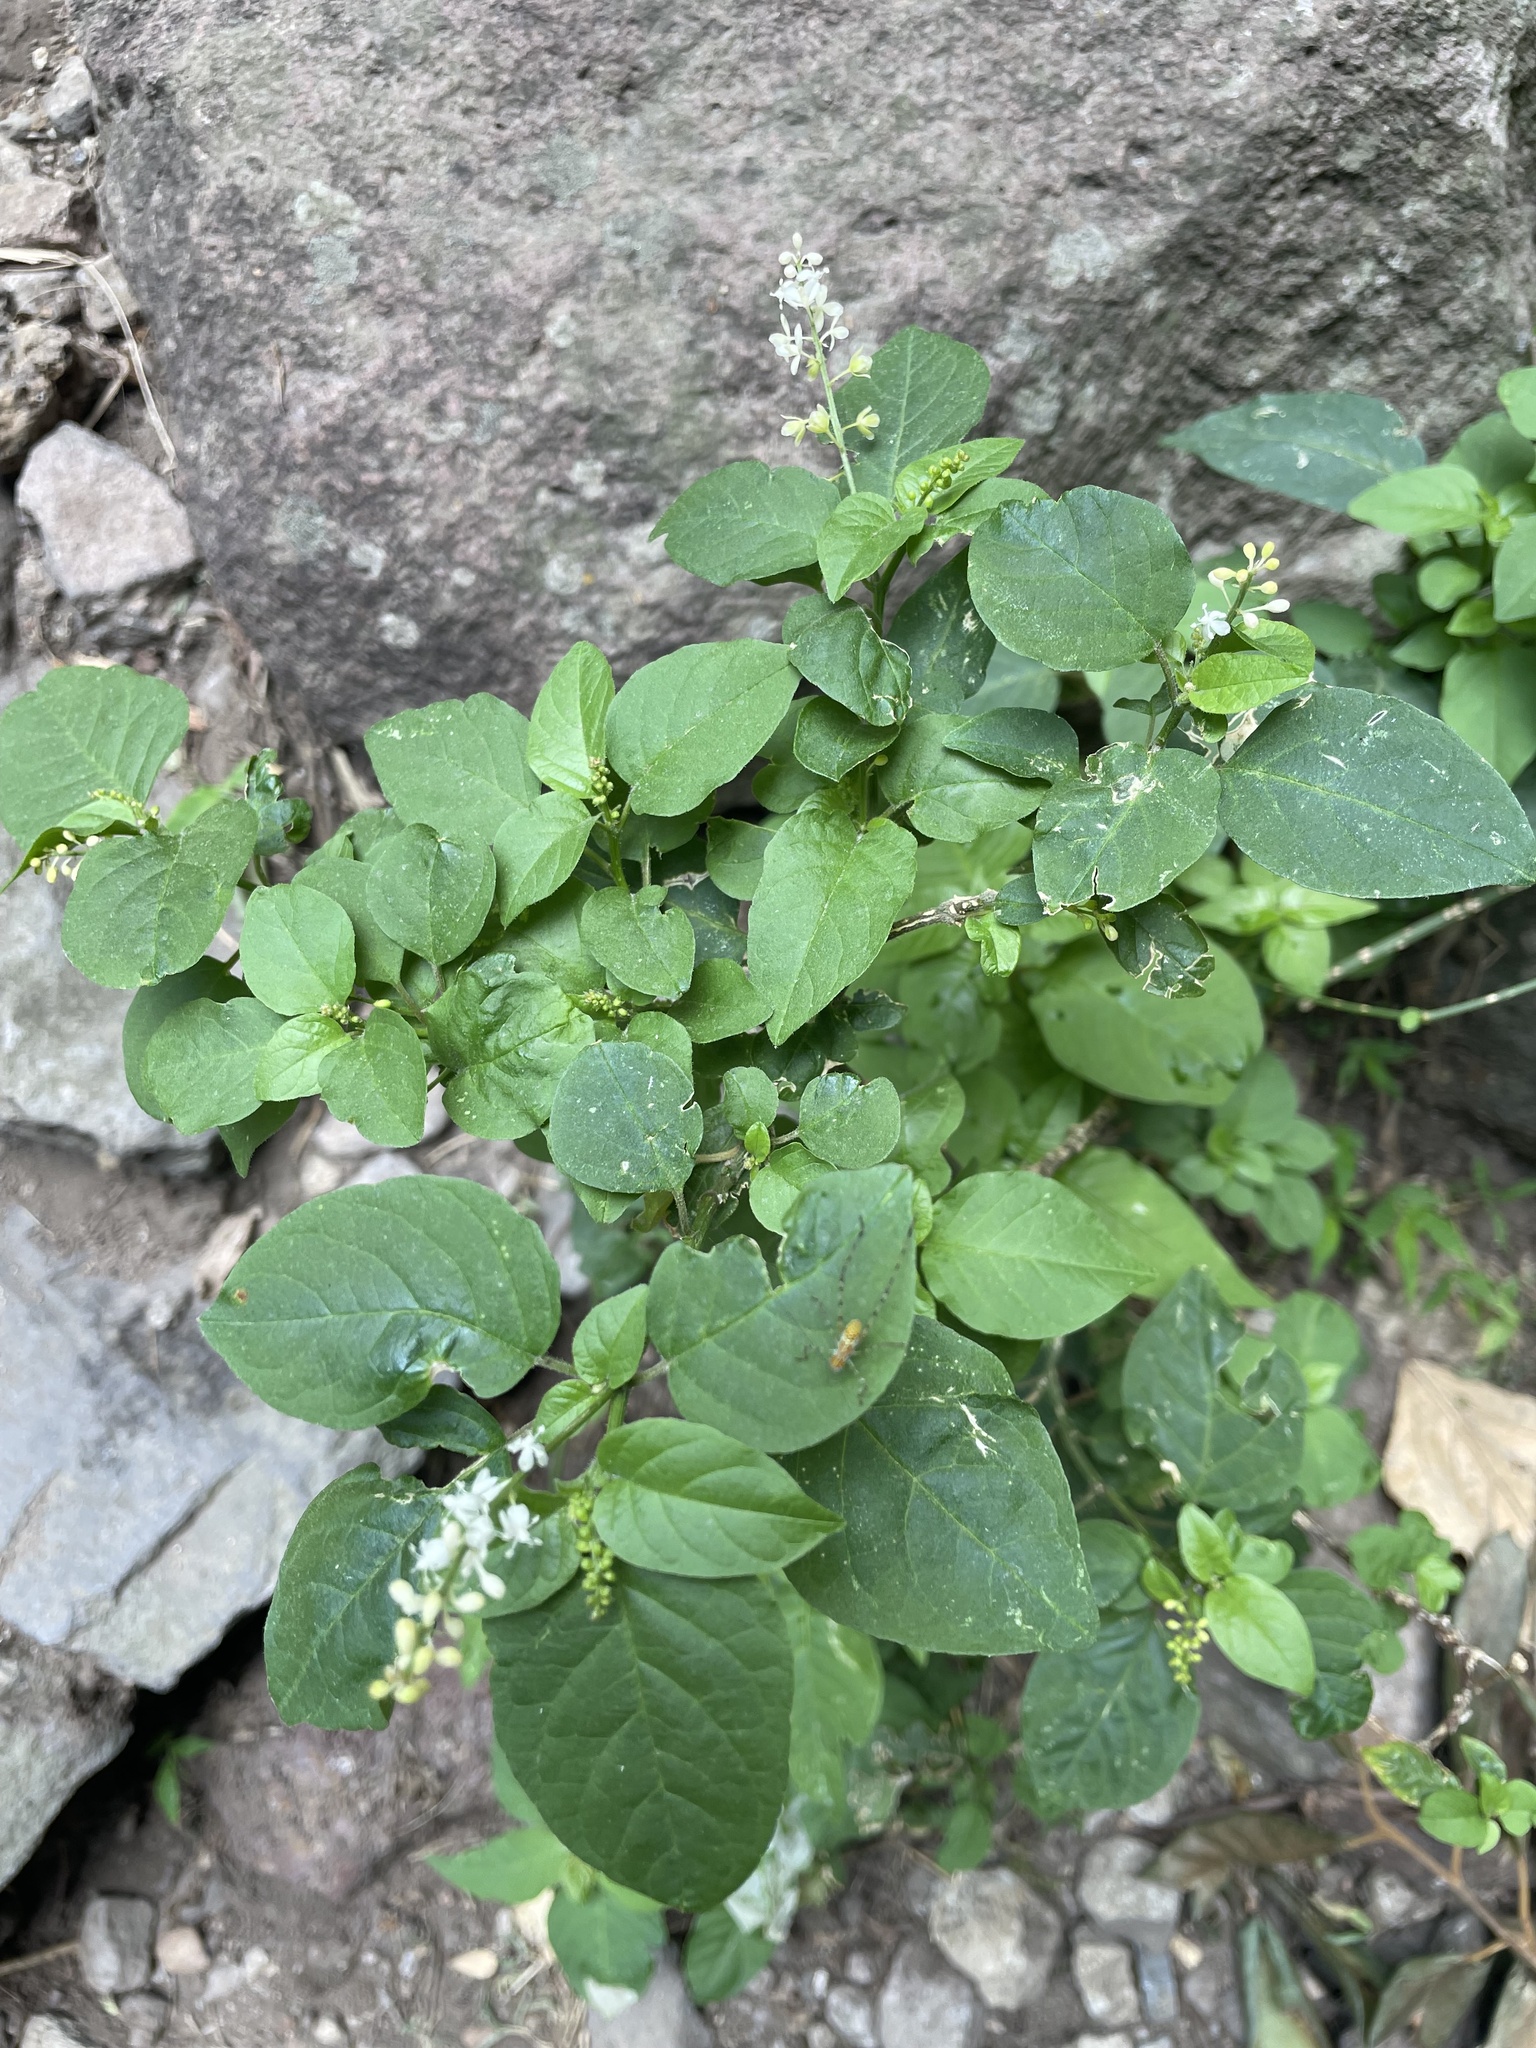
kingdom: Plantae
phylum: Tracheophyta
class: Magnoliopsida
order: Caryophyllales
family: Phytolaccaceae
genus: Rivina
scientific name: Rivina humilis
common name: Rougeplant
